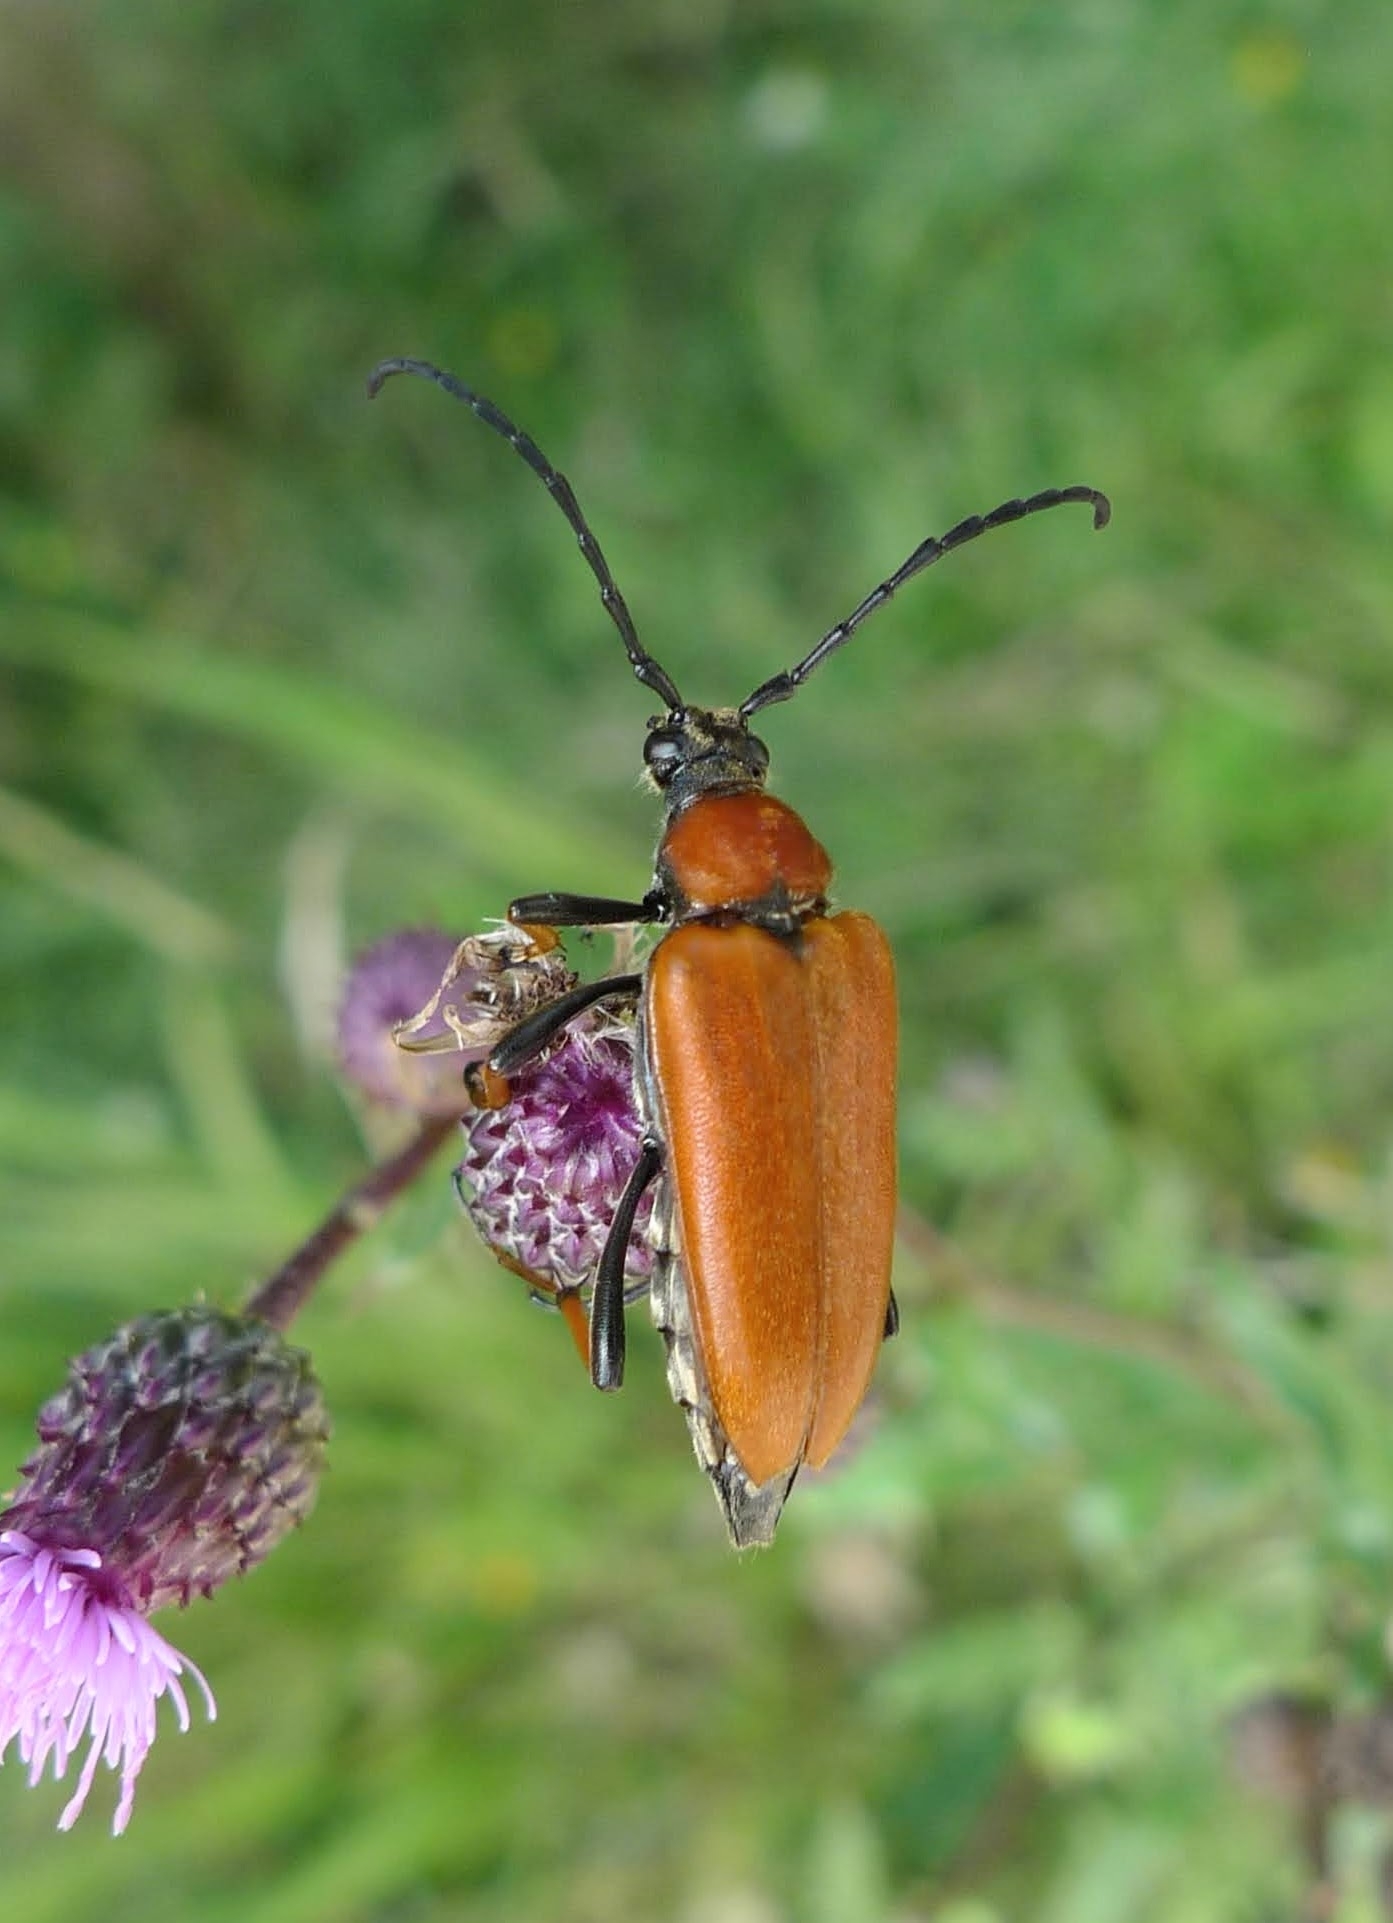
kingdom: Animalia
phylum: Arthropoda
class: Insecta
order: Coleoptera
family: Cerambycidae
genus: Stictoleptura
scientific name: Stictoleptura rubra
